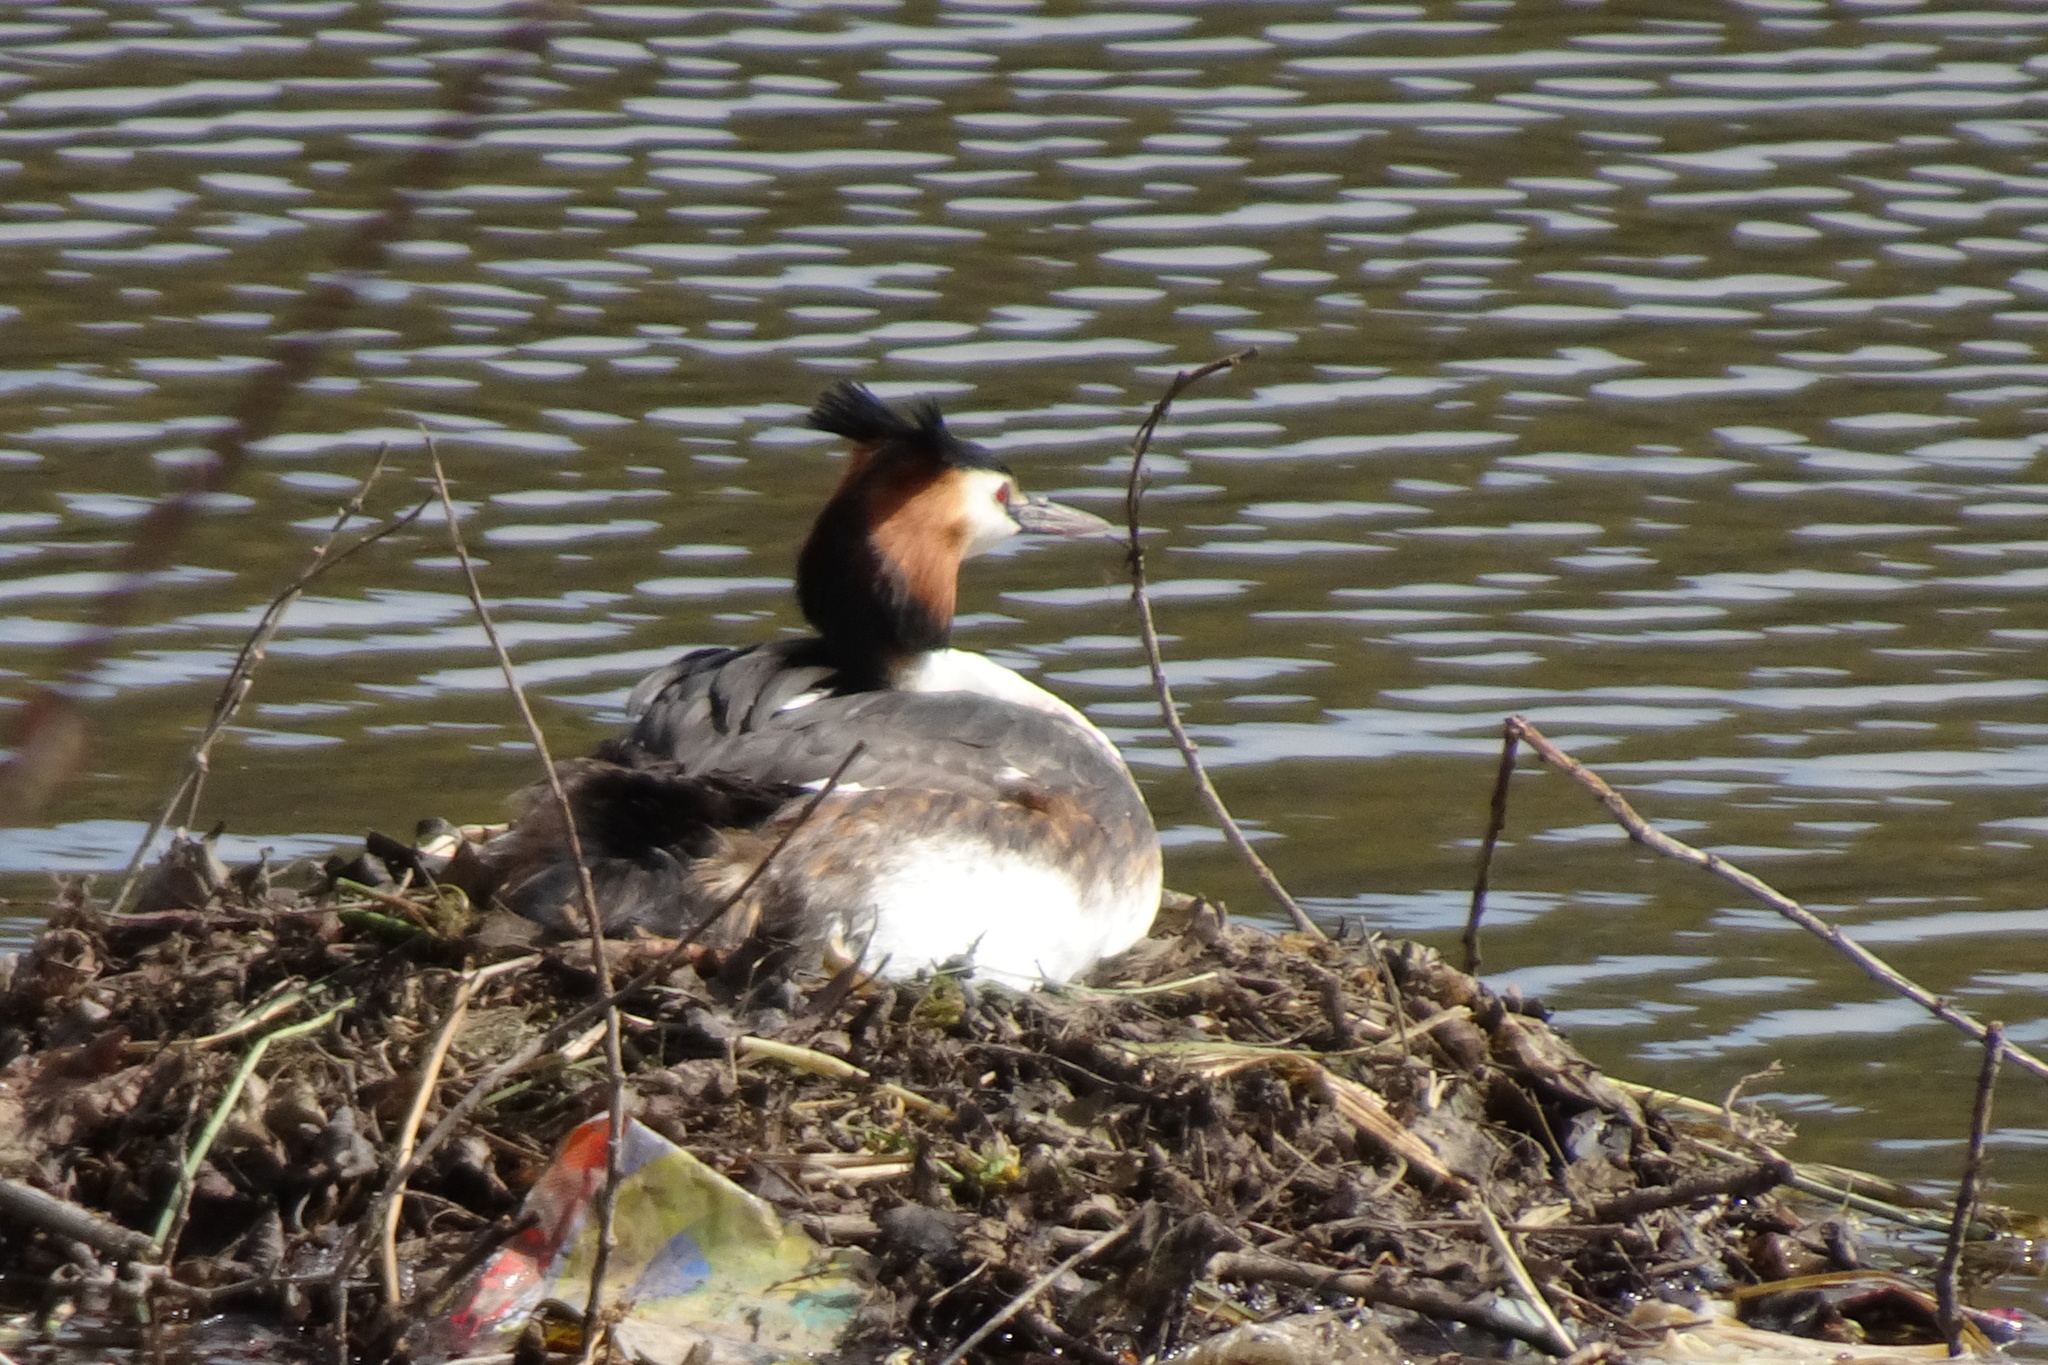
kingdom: Animalia
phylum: Chordata
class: Aves
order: Podicipediformes
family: Podicipedidae
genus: Podiceps
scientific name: Podiceps cristatus
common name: Great crested grebe
